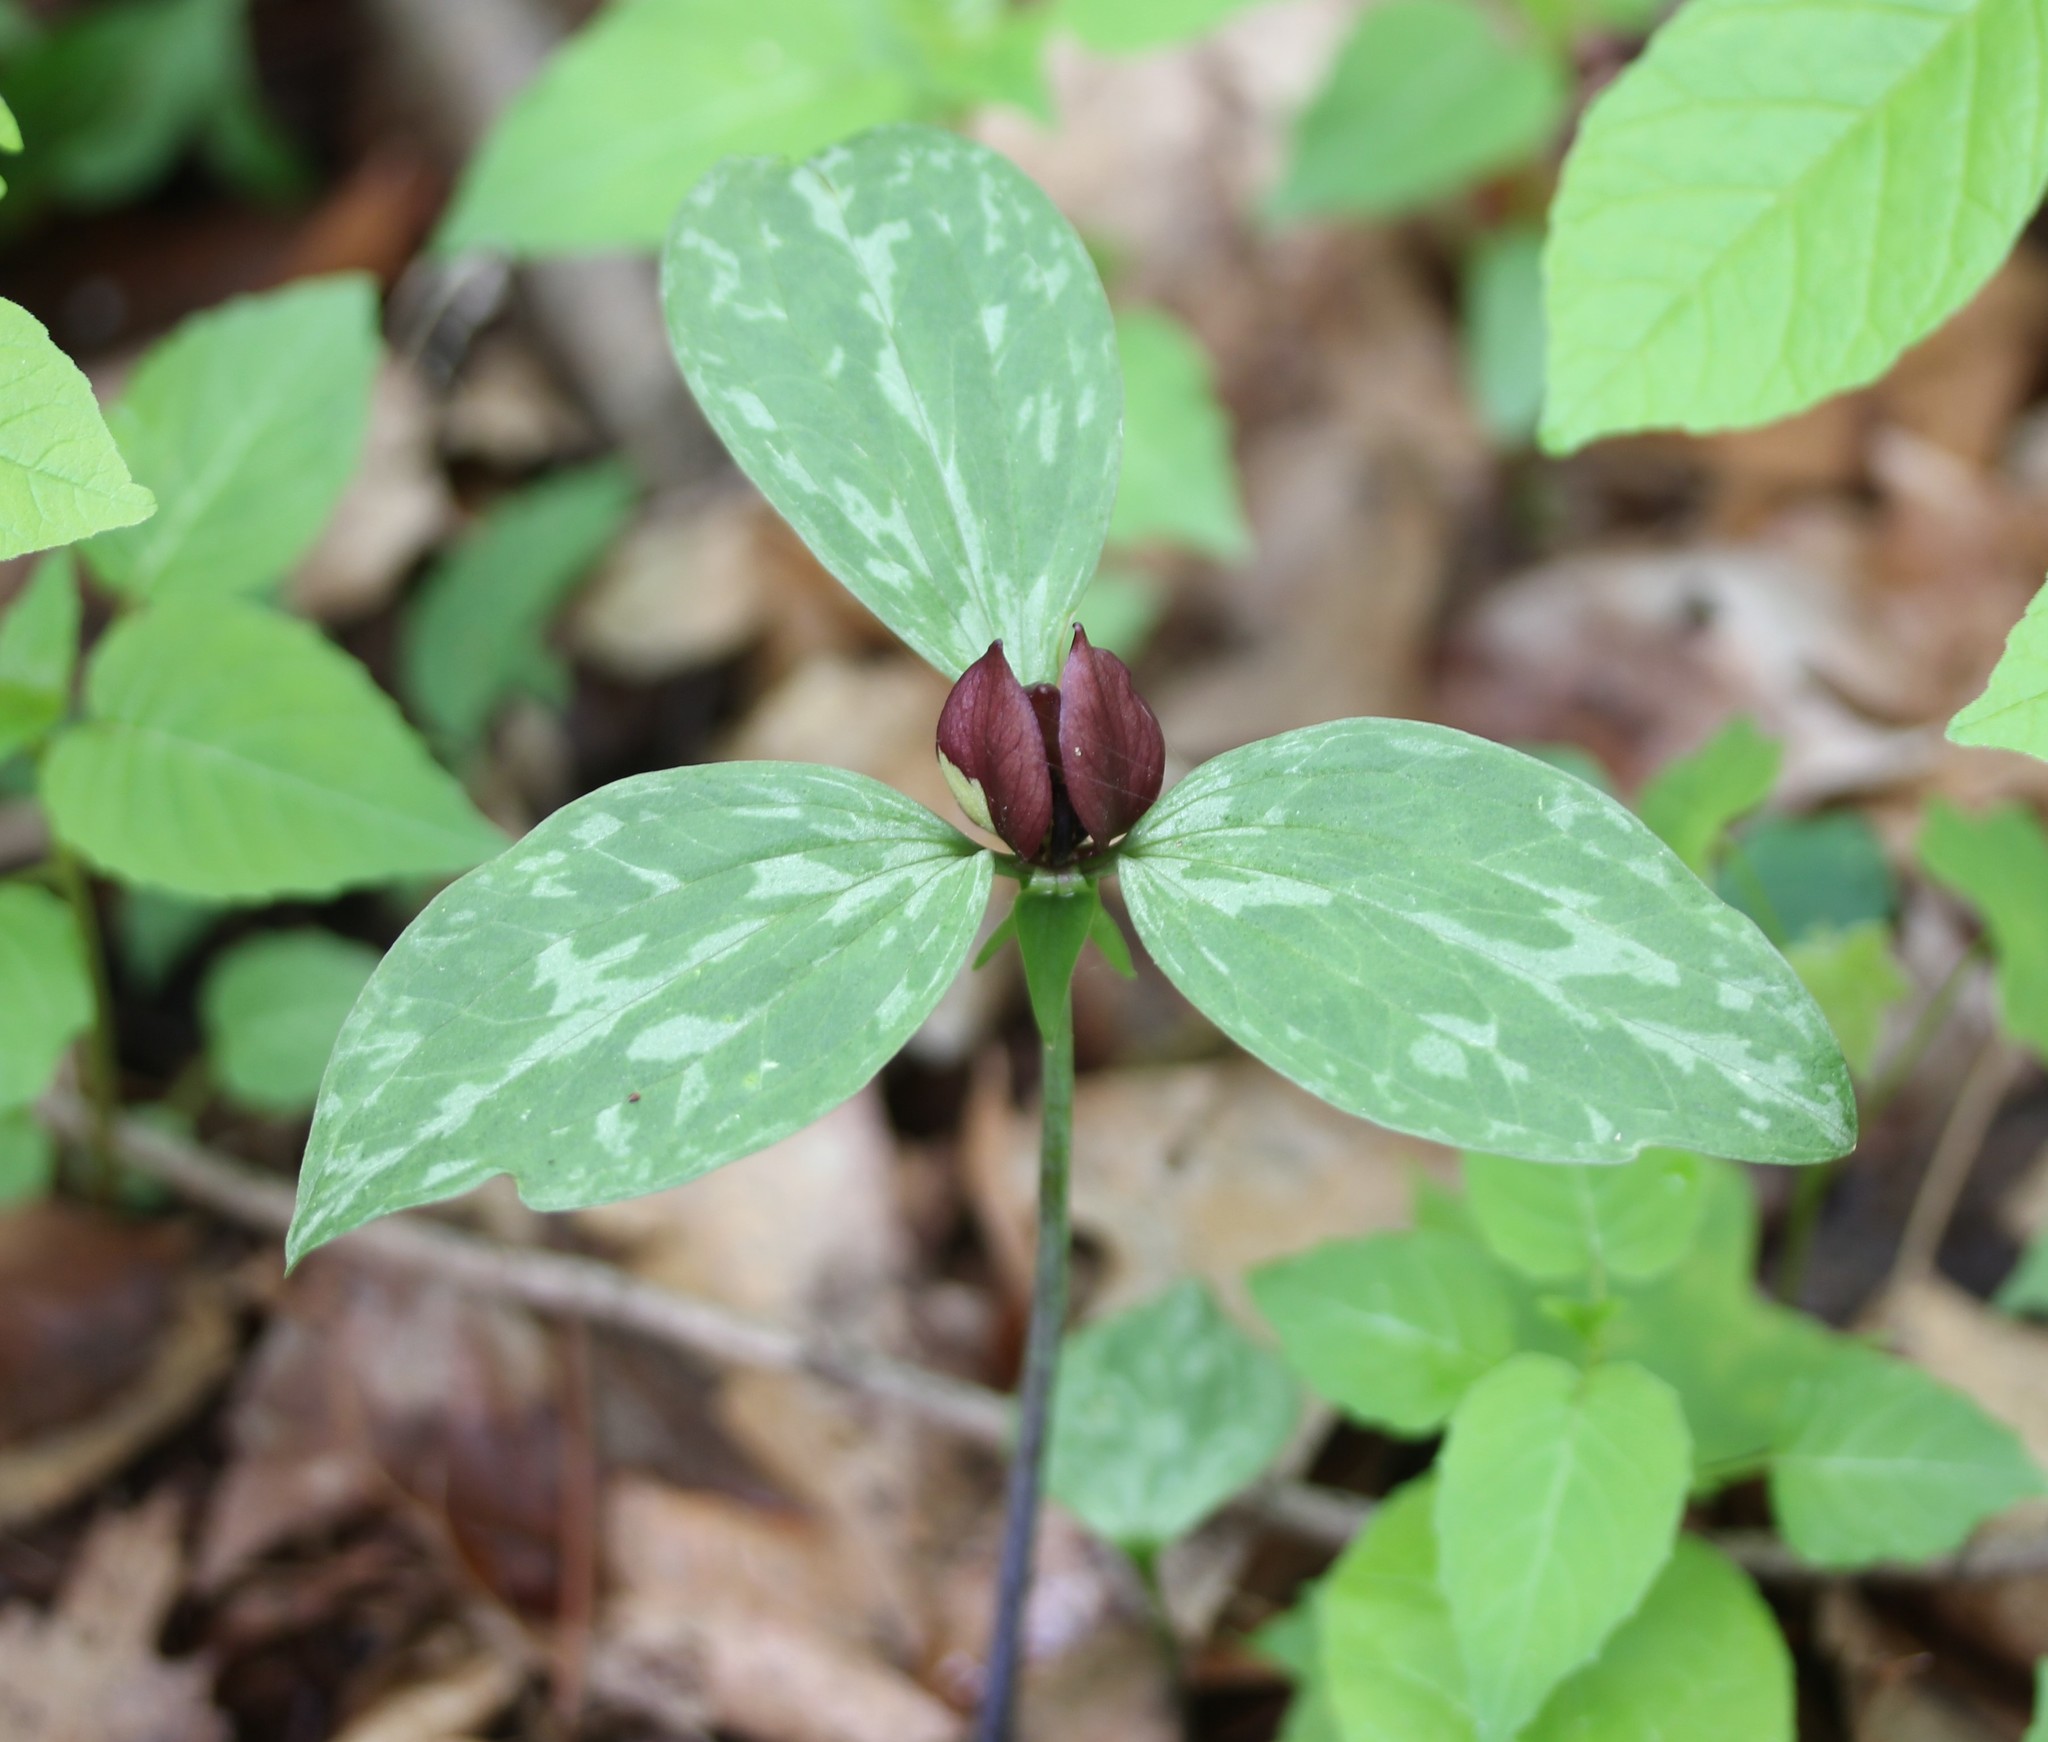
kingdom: Plantae
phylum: Tracheophyta
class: Liliopsida
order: Liliales
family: Melanthiaceae
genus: Trillium
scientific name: Trillium recurvatum
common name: Bloody butcher
